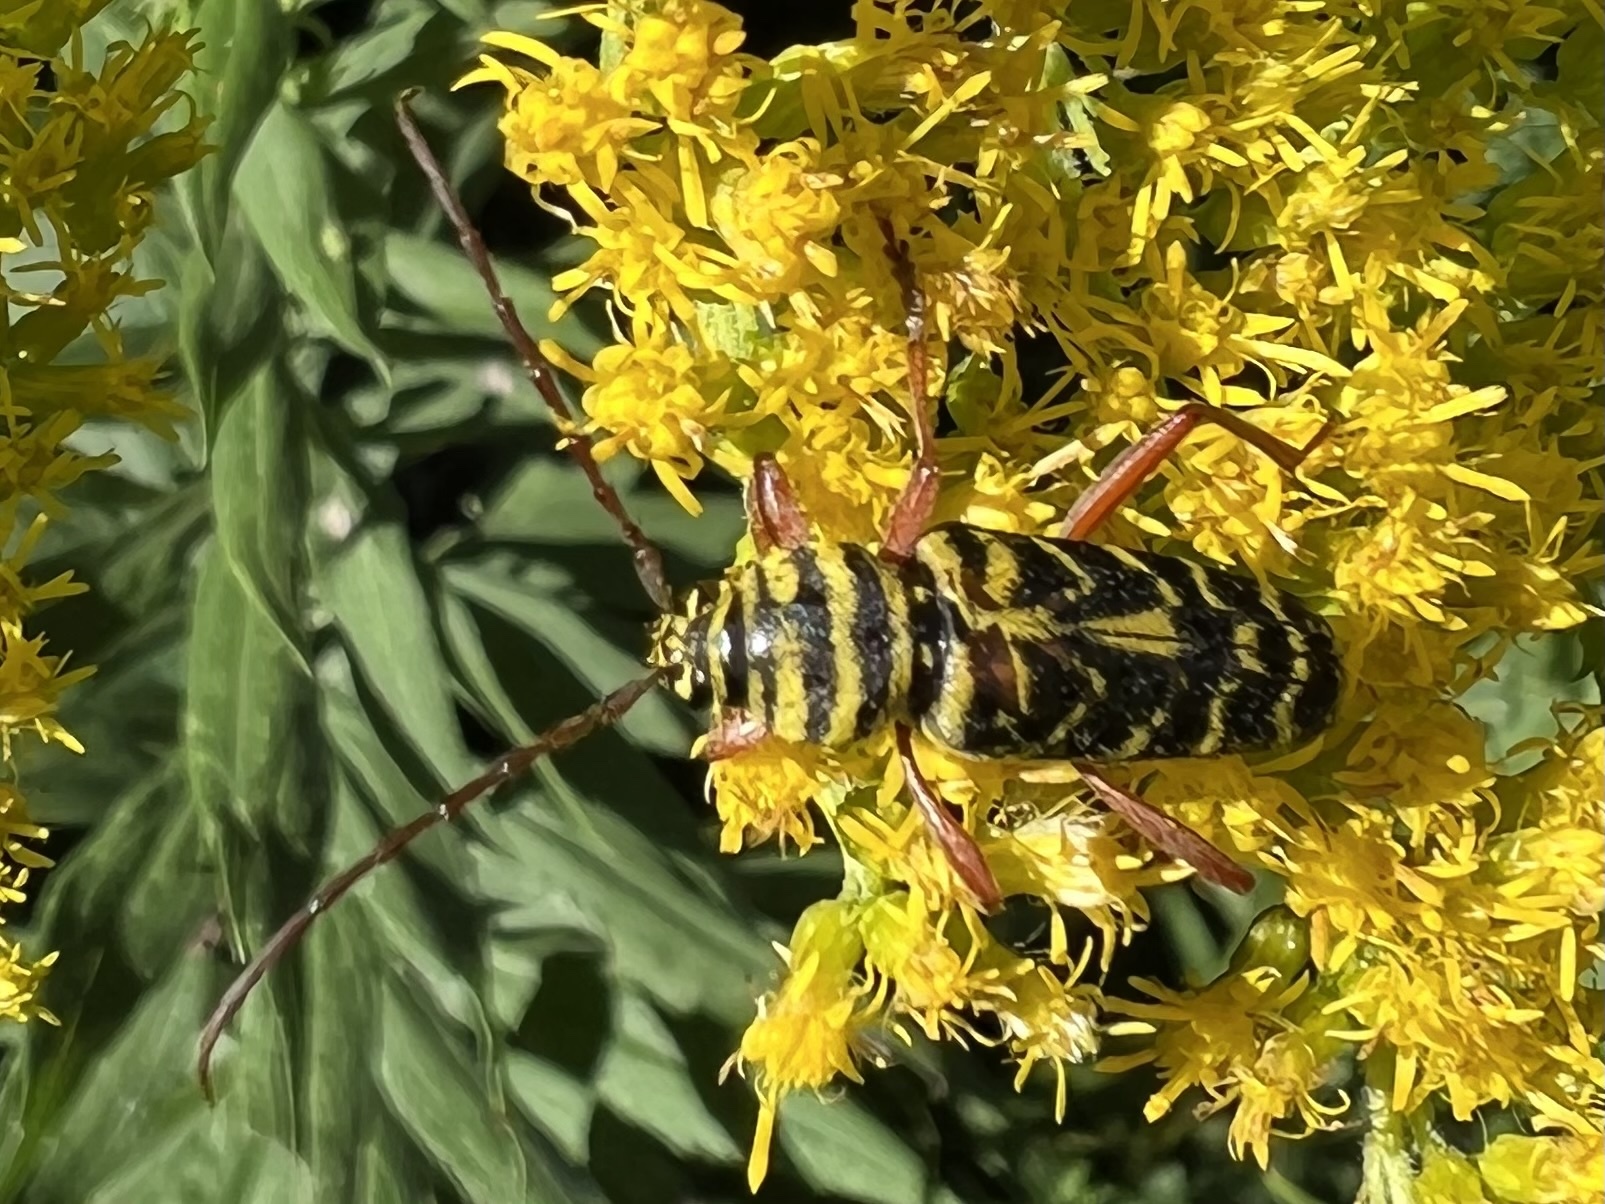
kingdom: Animalia
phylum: Arthropoda
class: Insecta
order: Coleoptera
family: Cerambycidae
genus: Megacyllene
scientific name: Megacyllene robiniae
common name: Locust borer
